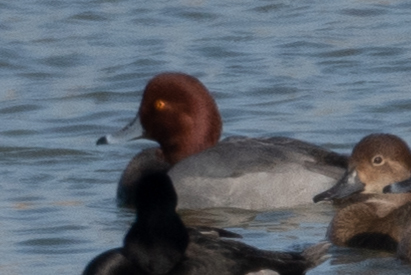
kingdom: Animalia
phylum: Chordata
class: Aves
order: Anseriformes
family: Anatidae
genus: Aythya
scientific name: Aythya americana
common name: Redhead
